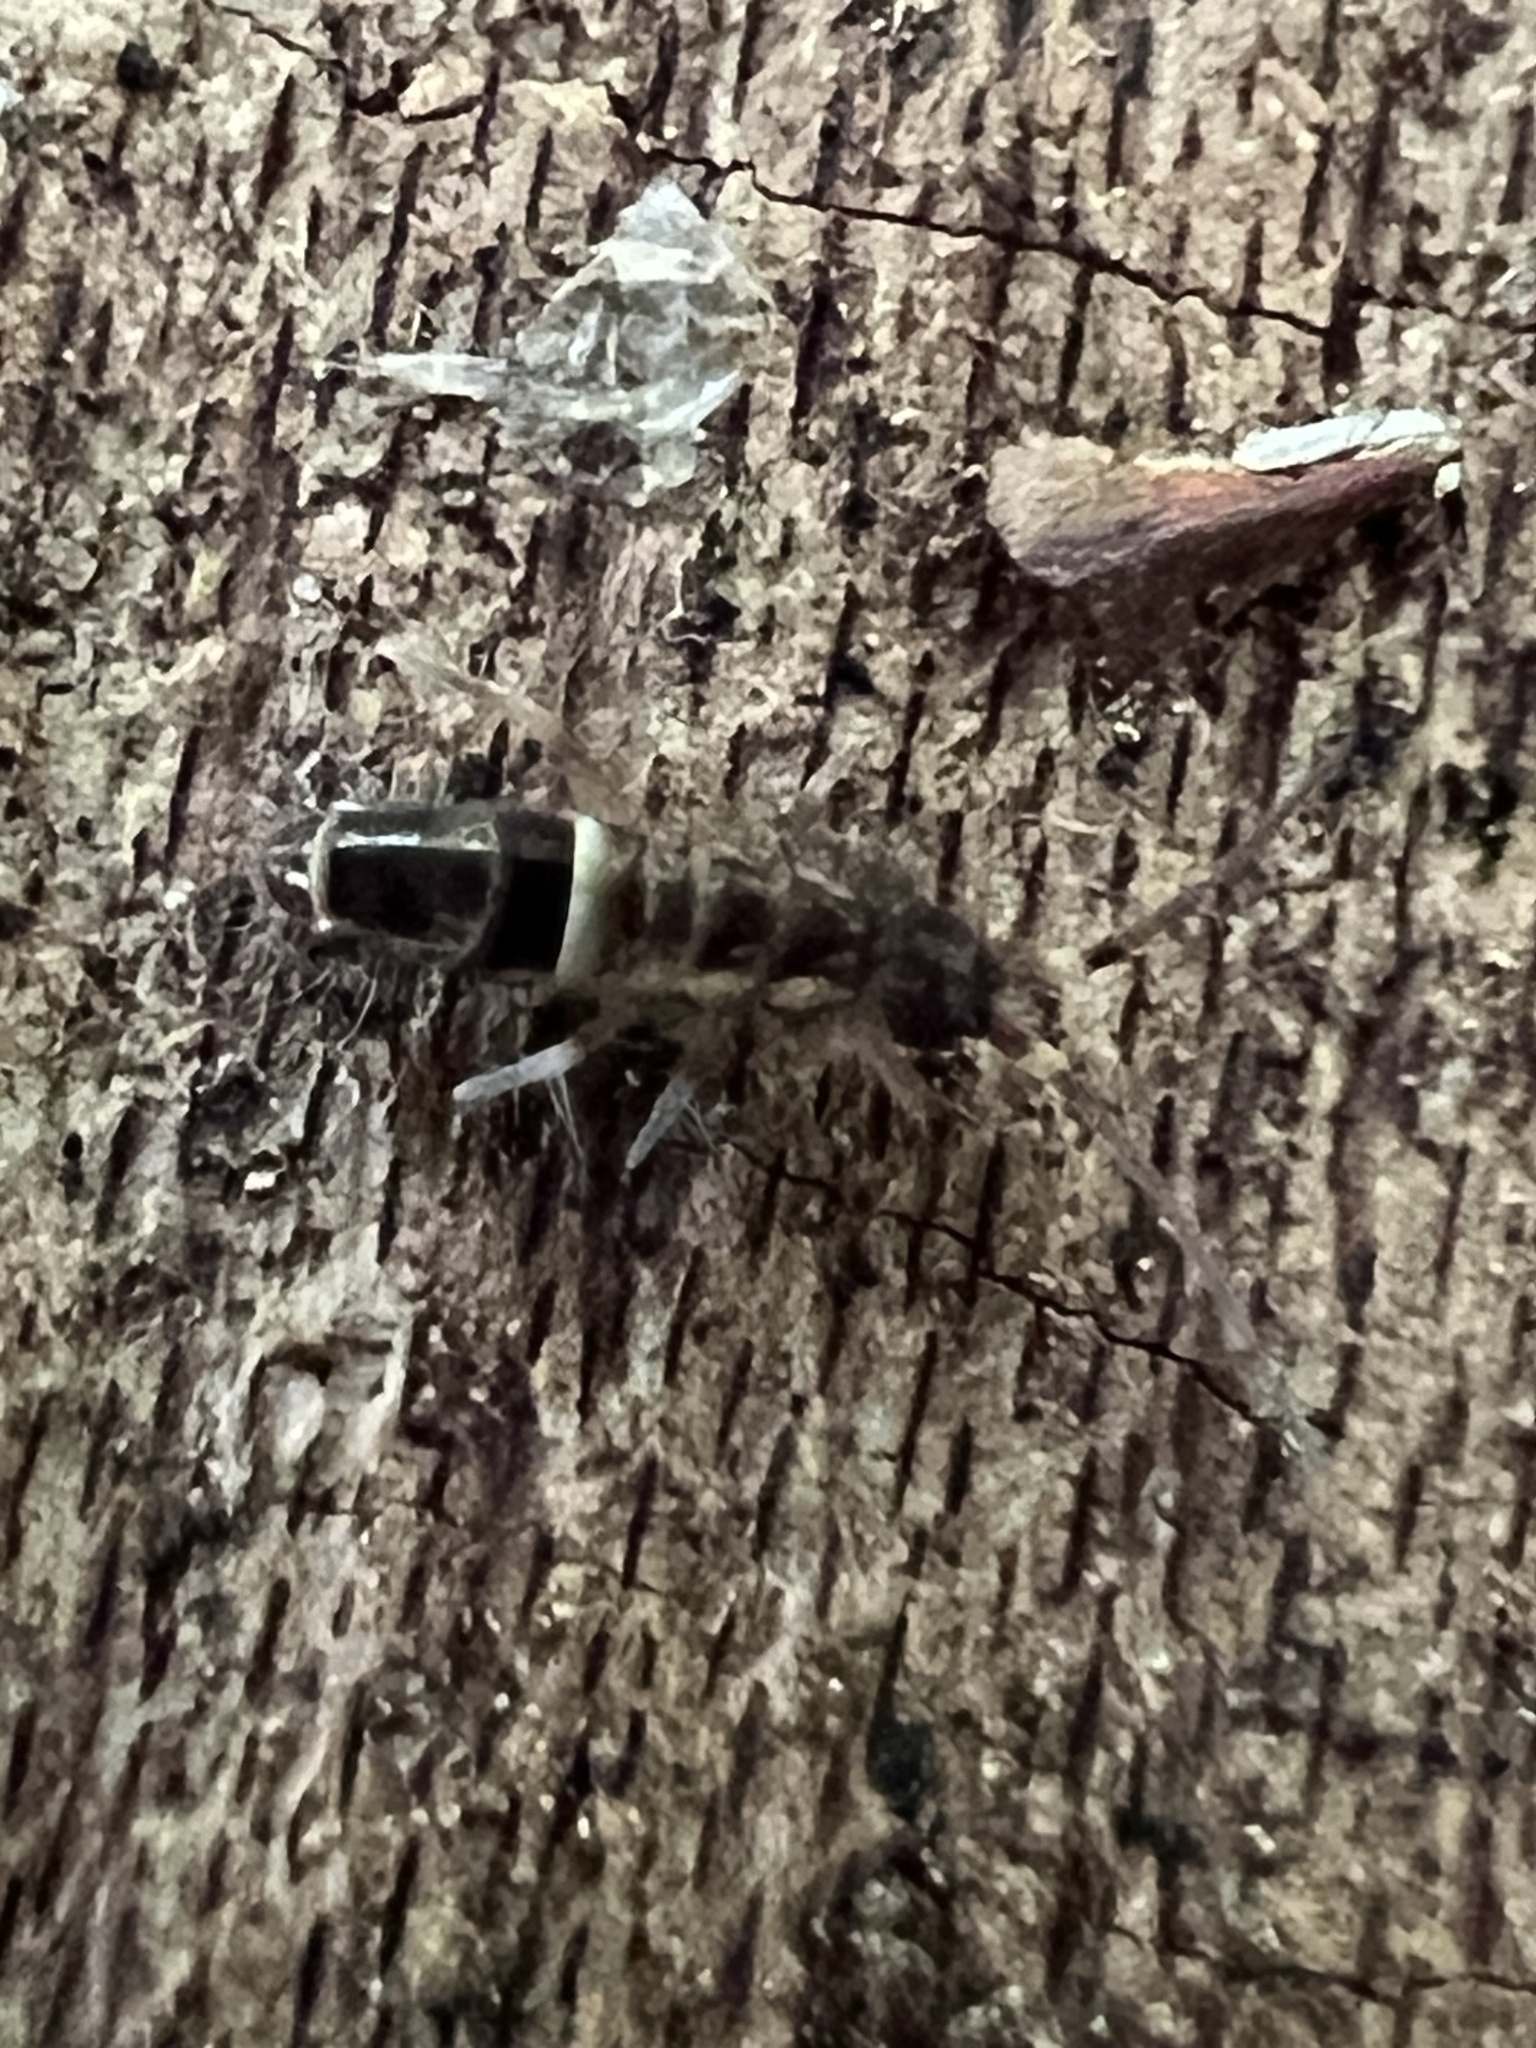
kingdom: Animalia
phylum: Arthropoda
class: Collembola
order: Entomobryomorpha
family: Orchesellidae
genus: Orchesella
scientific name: Orchesella cincta
